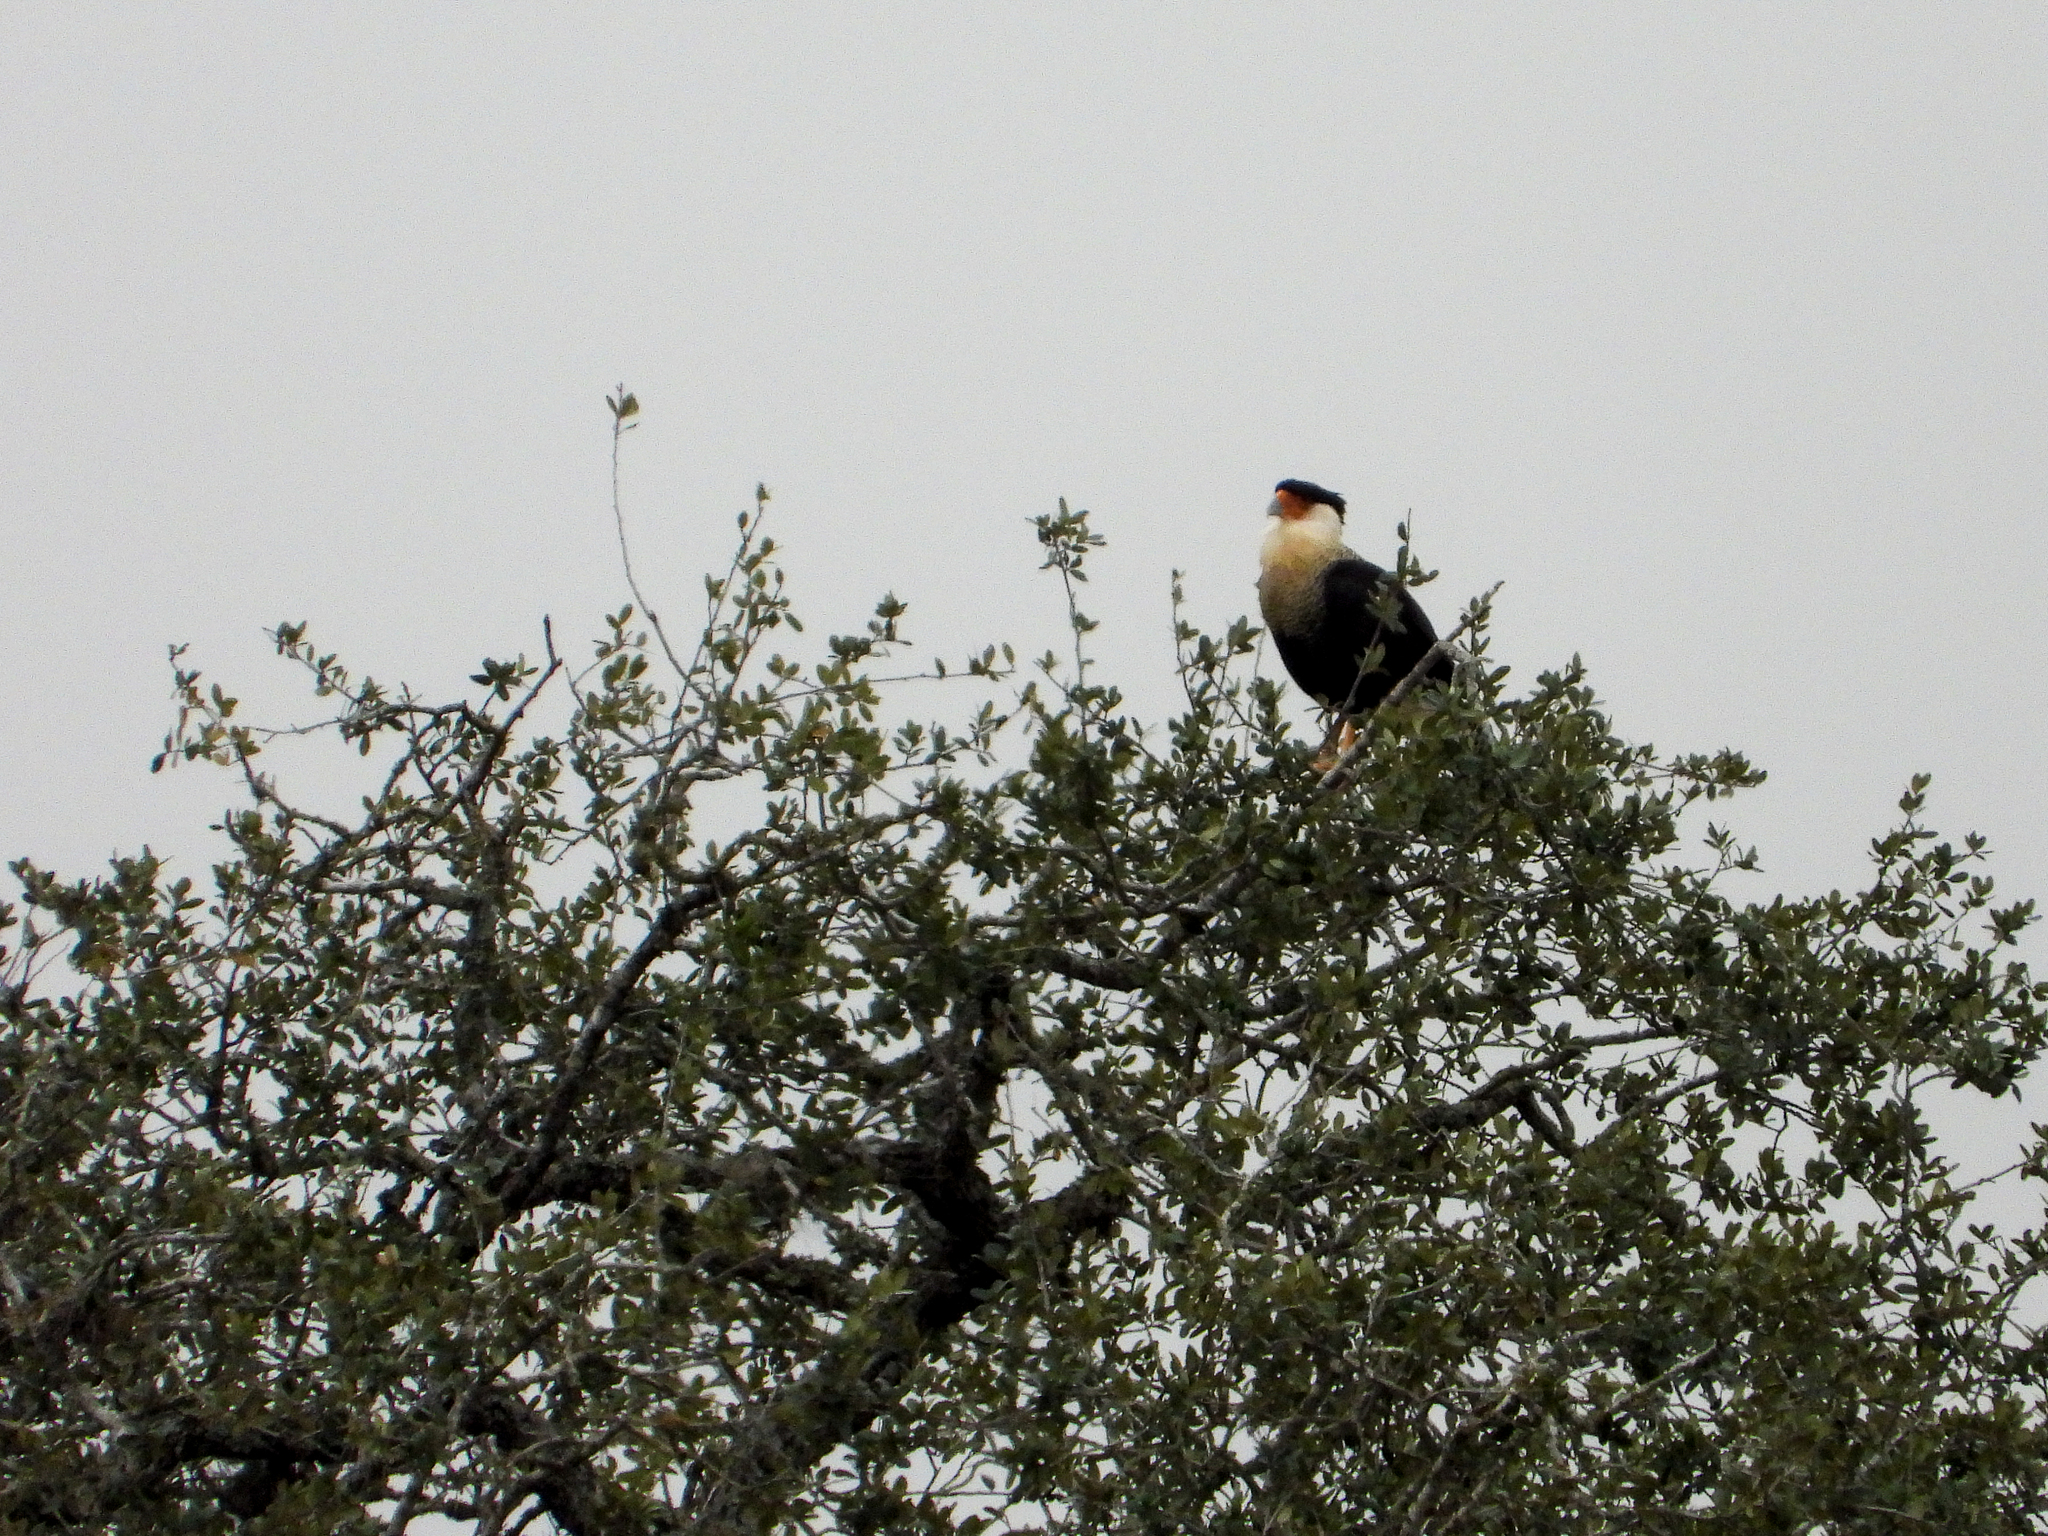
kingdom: Animalia
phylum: Chordata
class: Aves
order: Falconiformes
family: Falconidae
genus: Caracara
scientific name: Caracara plancus
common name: Southern caracara
